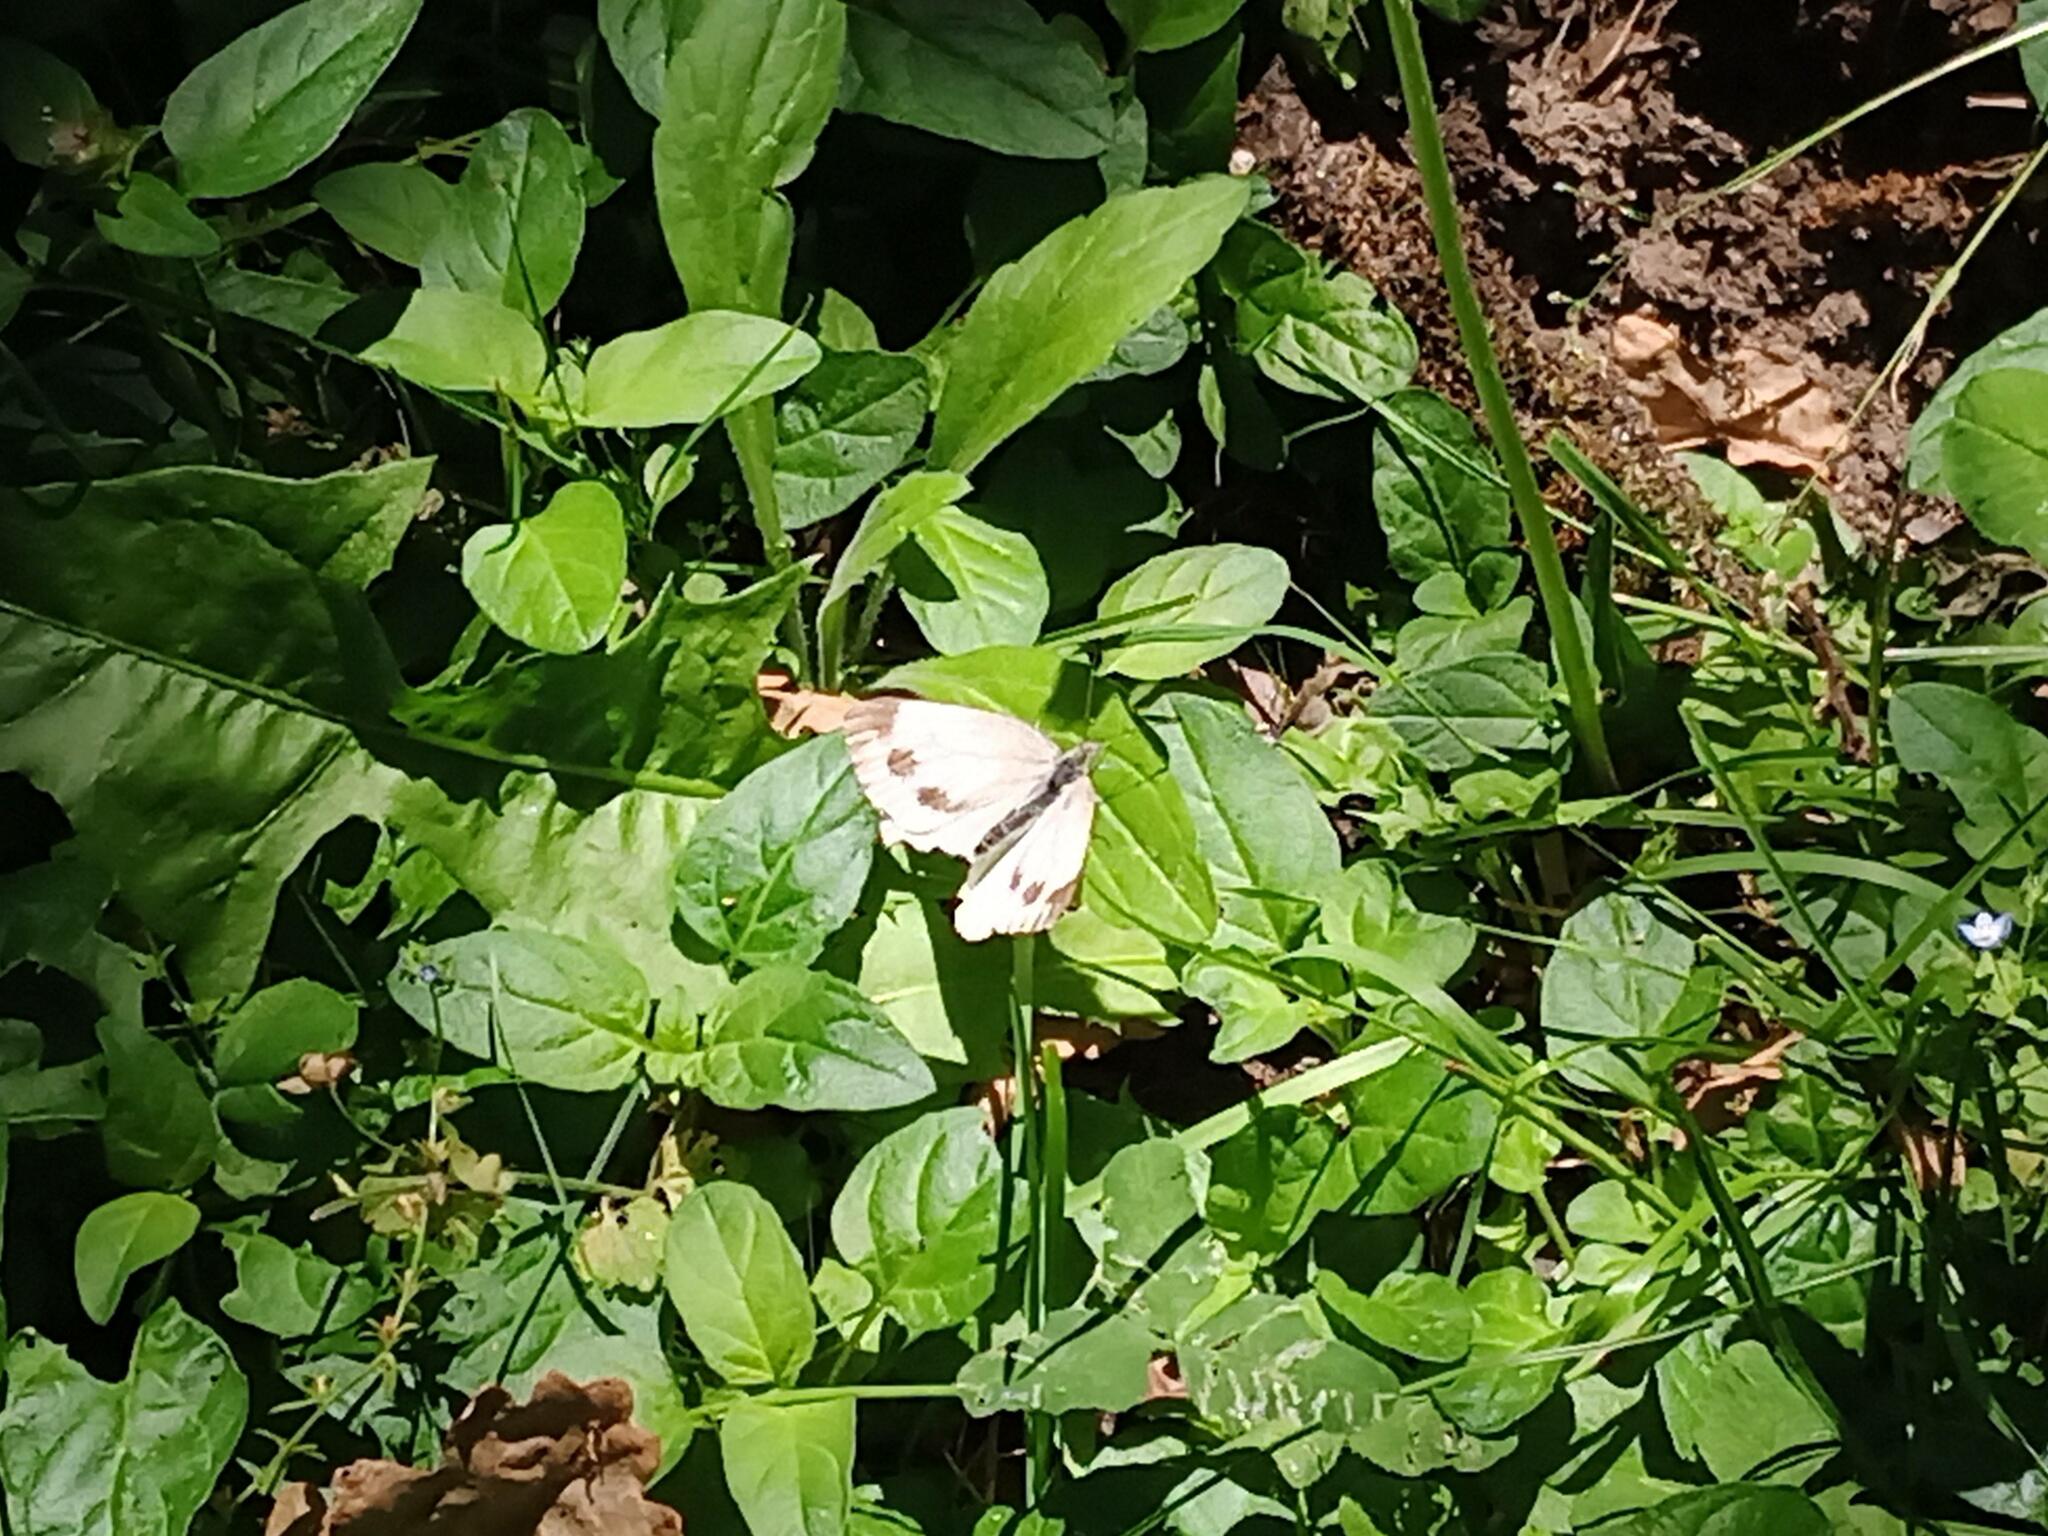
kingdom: Animalia
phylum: Arthropoda
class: Insecta
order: Lepidoptera
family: Pieridae
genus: Pieris
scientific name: Pieris napi
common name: Green-veined white
